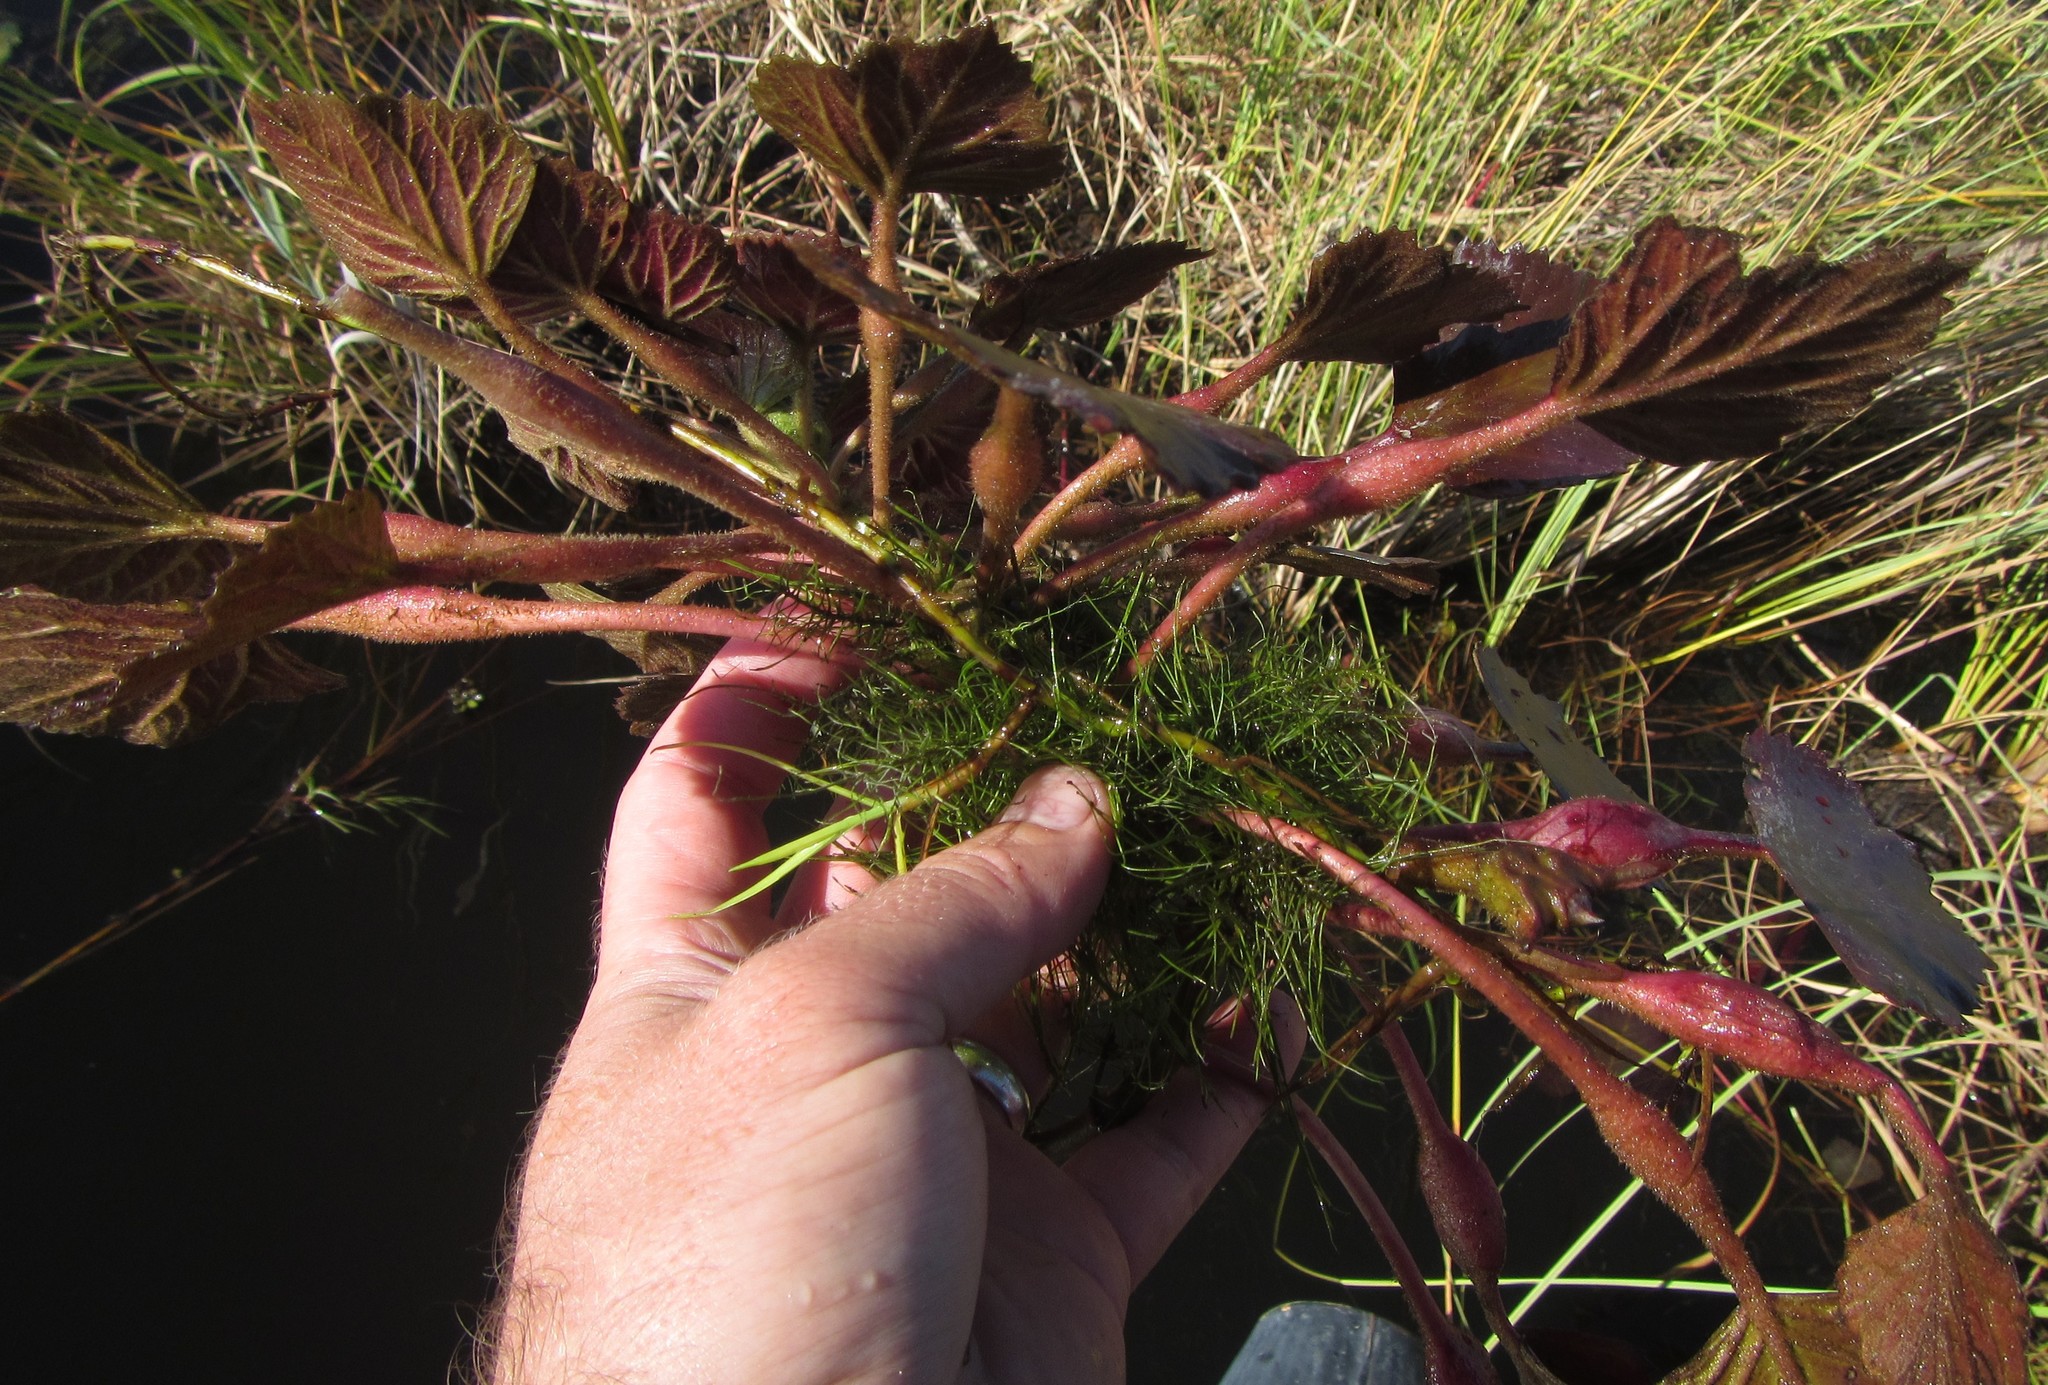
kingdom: Plantae
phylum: Tracheophyta
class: Magnoliopsida
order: Myrtales
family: Lythraceae
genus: Trapa
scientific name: Trapa natans
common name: Water chestnut
